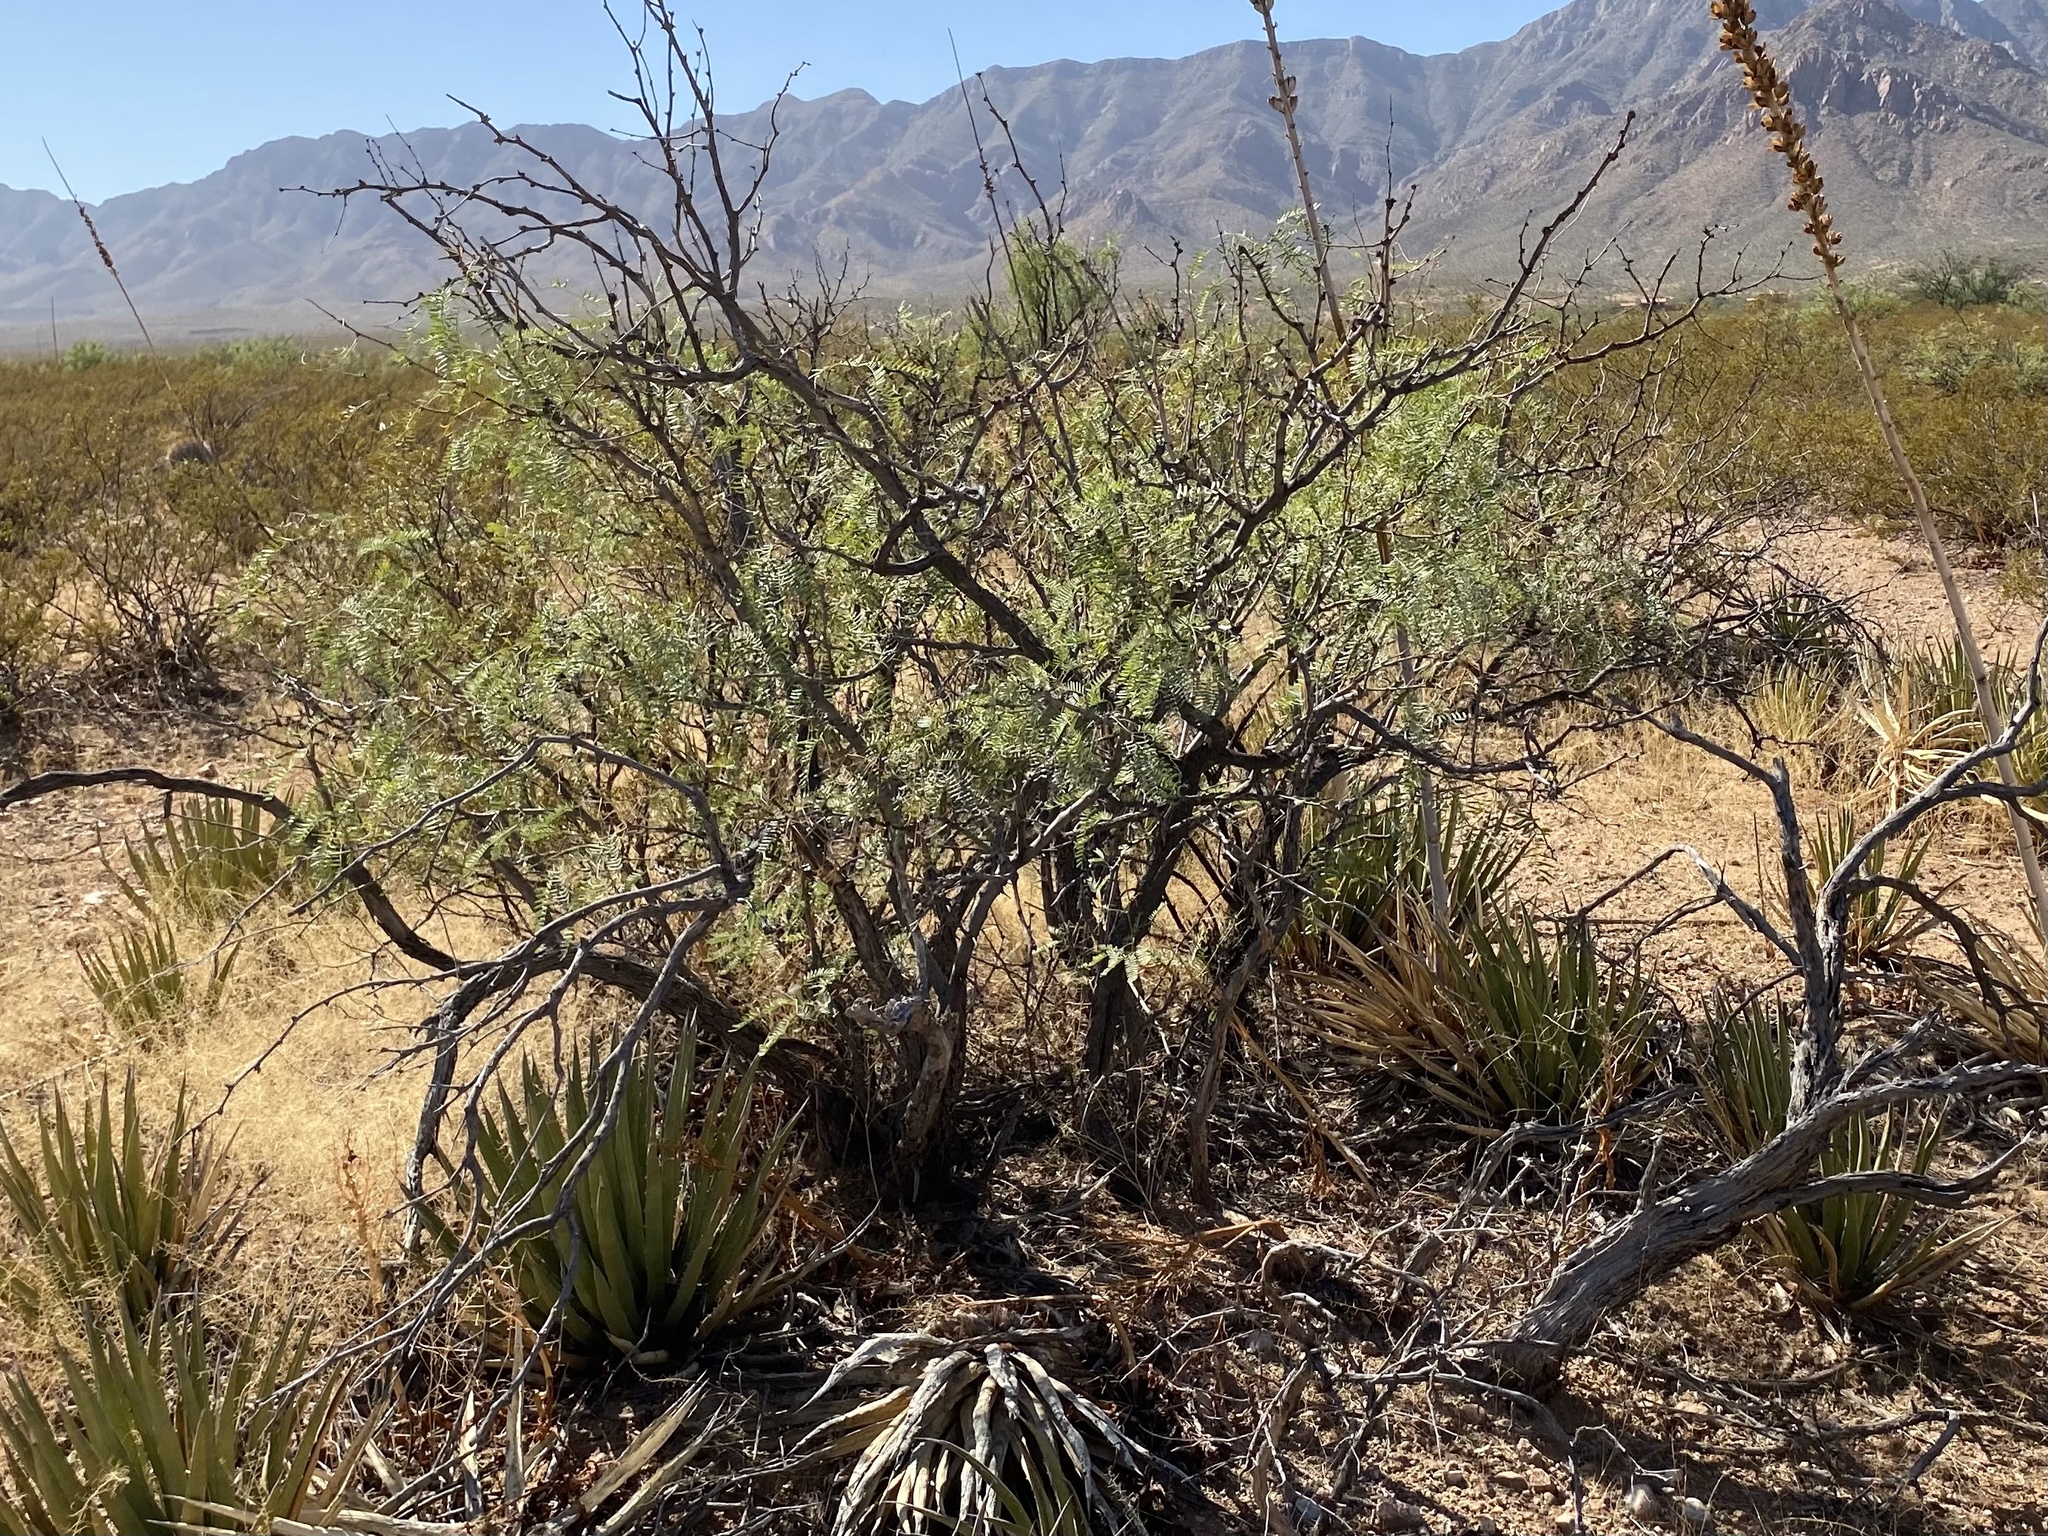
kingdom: Plantae
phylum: Tracheophyta
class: Magnoliopsida
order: Fabales
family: Fabaceae
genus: Prosopis
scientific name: Prosopis glandulosa
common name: Honey mesquite
